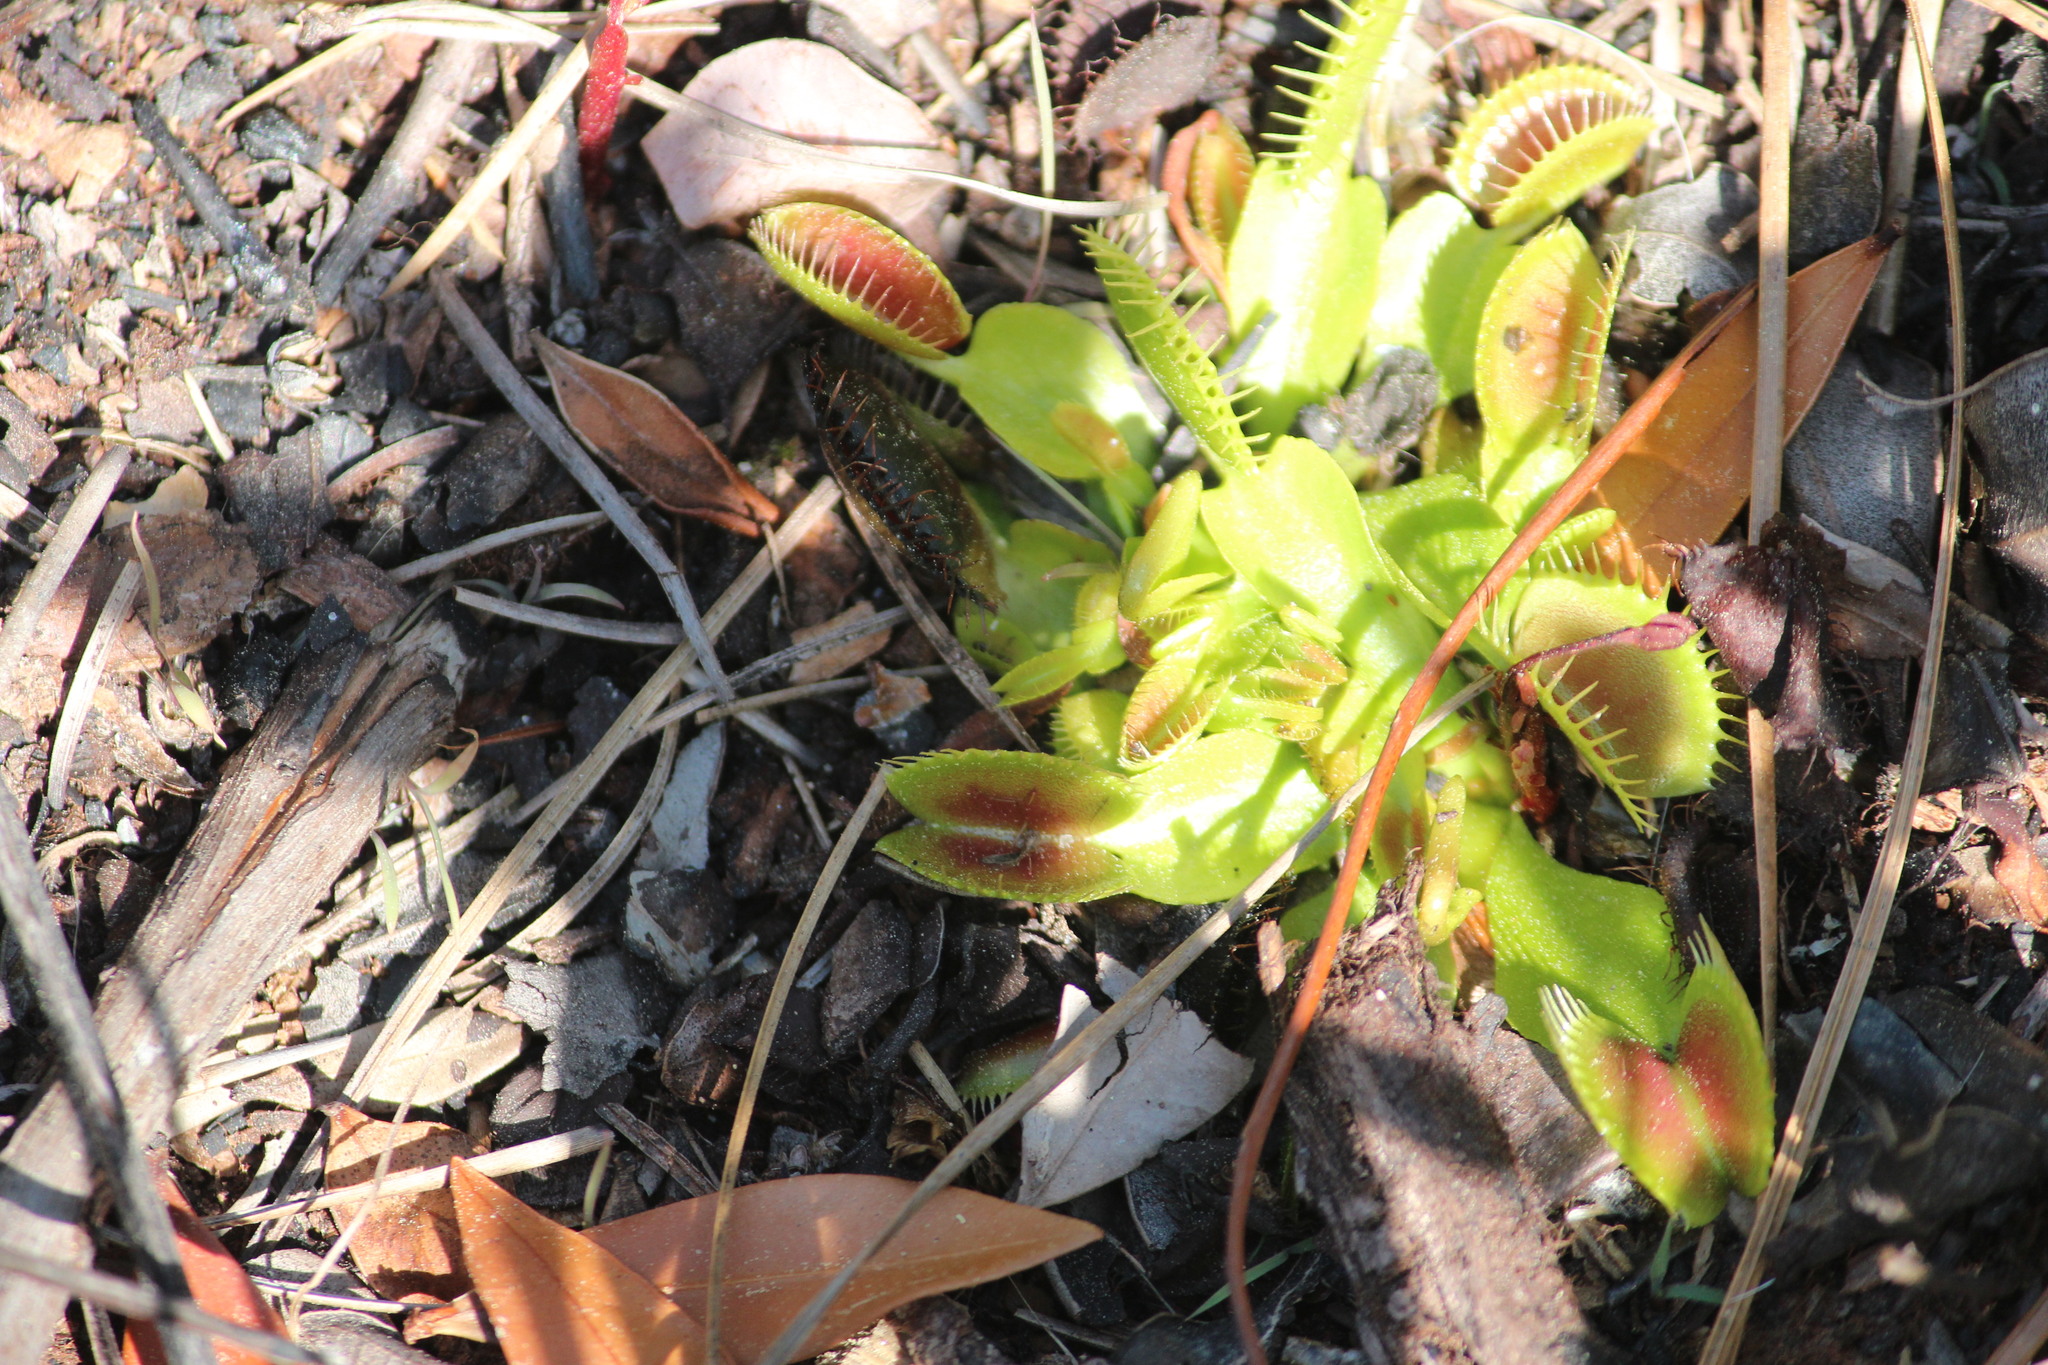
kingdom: Plantae
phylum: Tracheophyta
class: Magnoliopsida
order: Caryophyllales
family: Droseraceae
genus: Dionaea
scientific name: Dionaea muscipula
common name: Venus flytrap
